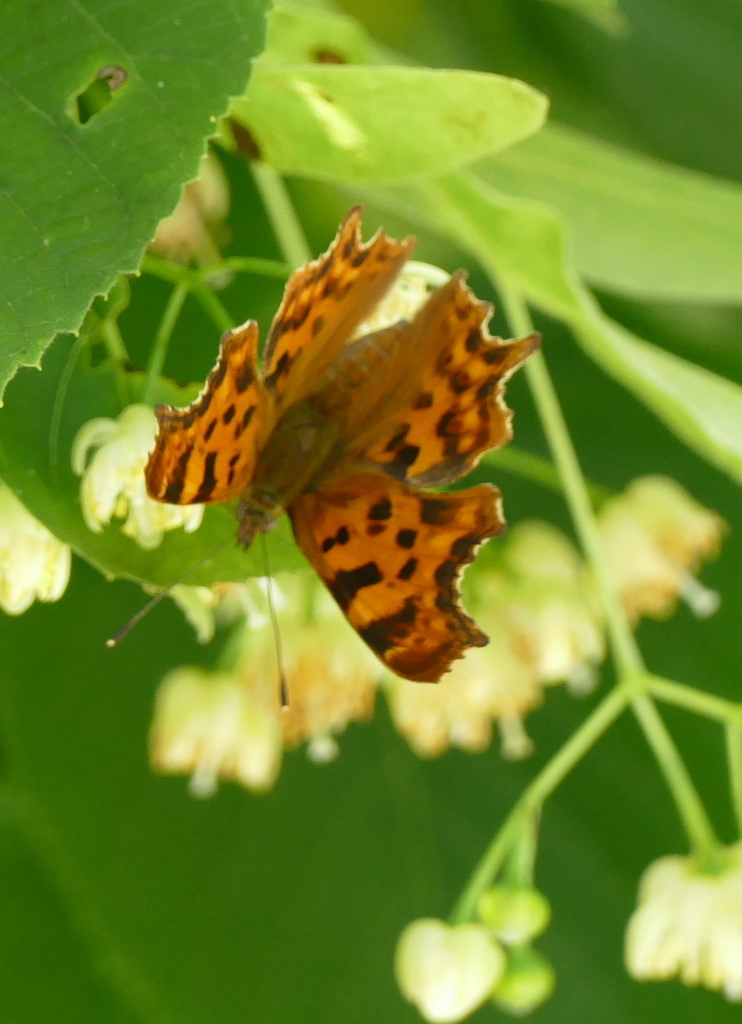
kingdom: Animalia
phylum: Arthropoda
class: Insecta
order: Lepidoptera
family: Nymphalidae
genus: Polygonia
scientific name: Polygonia c-album
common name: Comma
